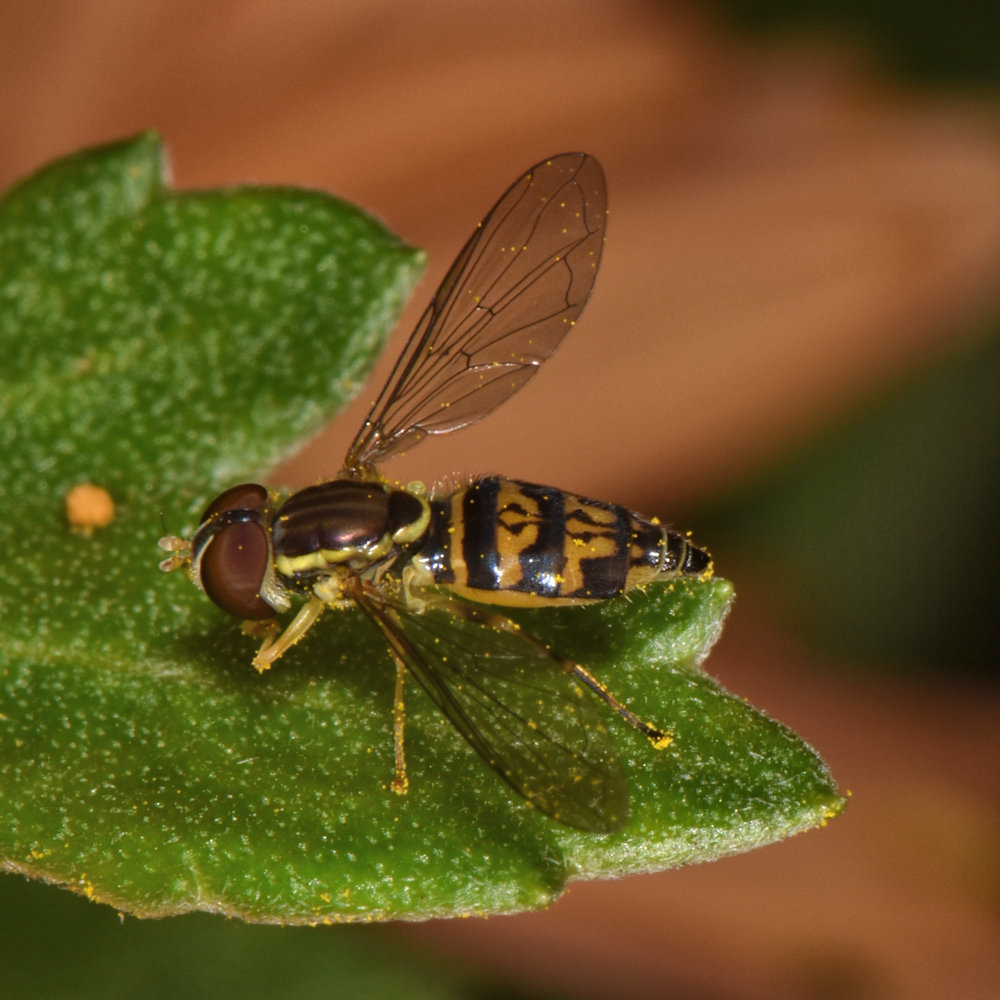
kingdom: Animalia
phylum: Arthropoda
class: Insecta
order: Diptera
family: Syrphidae
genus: Toxomerus
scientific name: Toxomerus geminatus
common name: Eastern calligrapher
